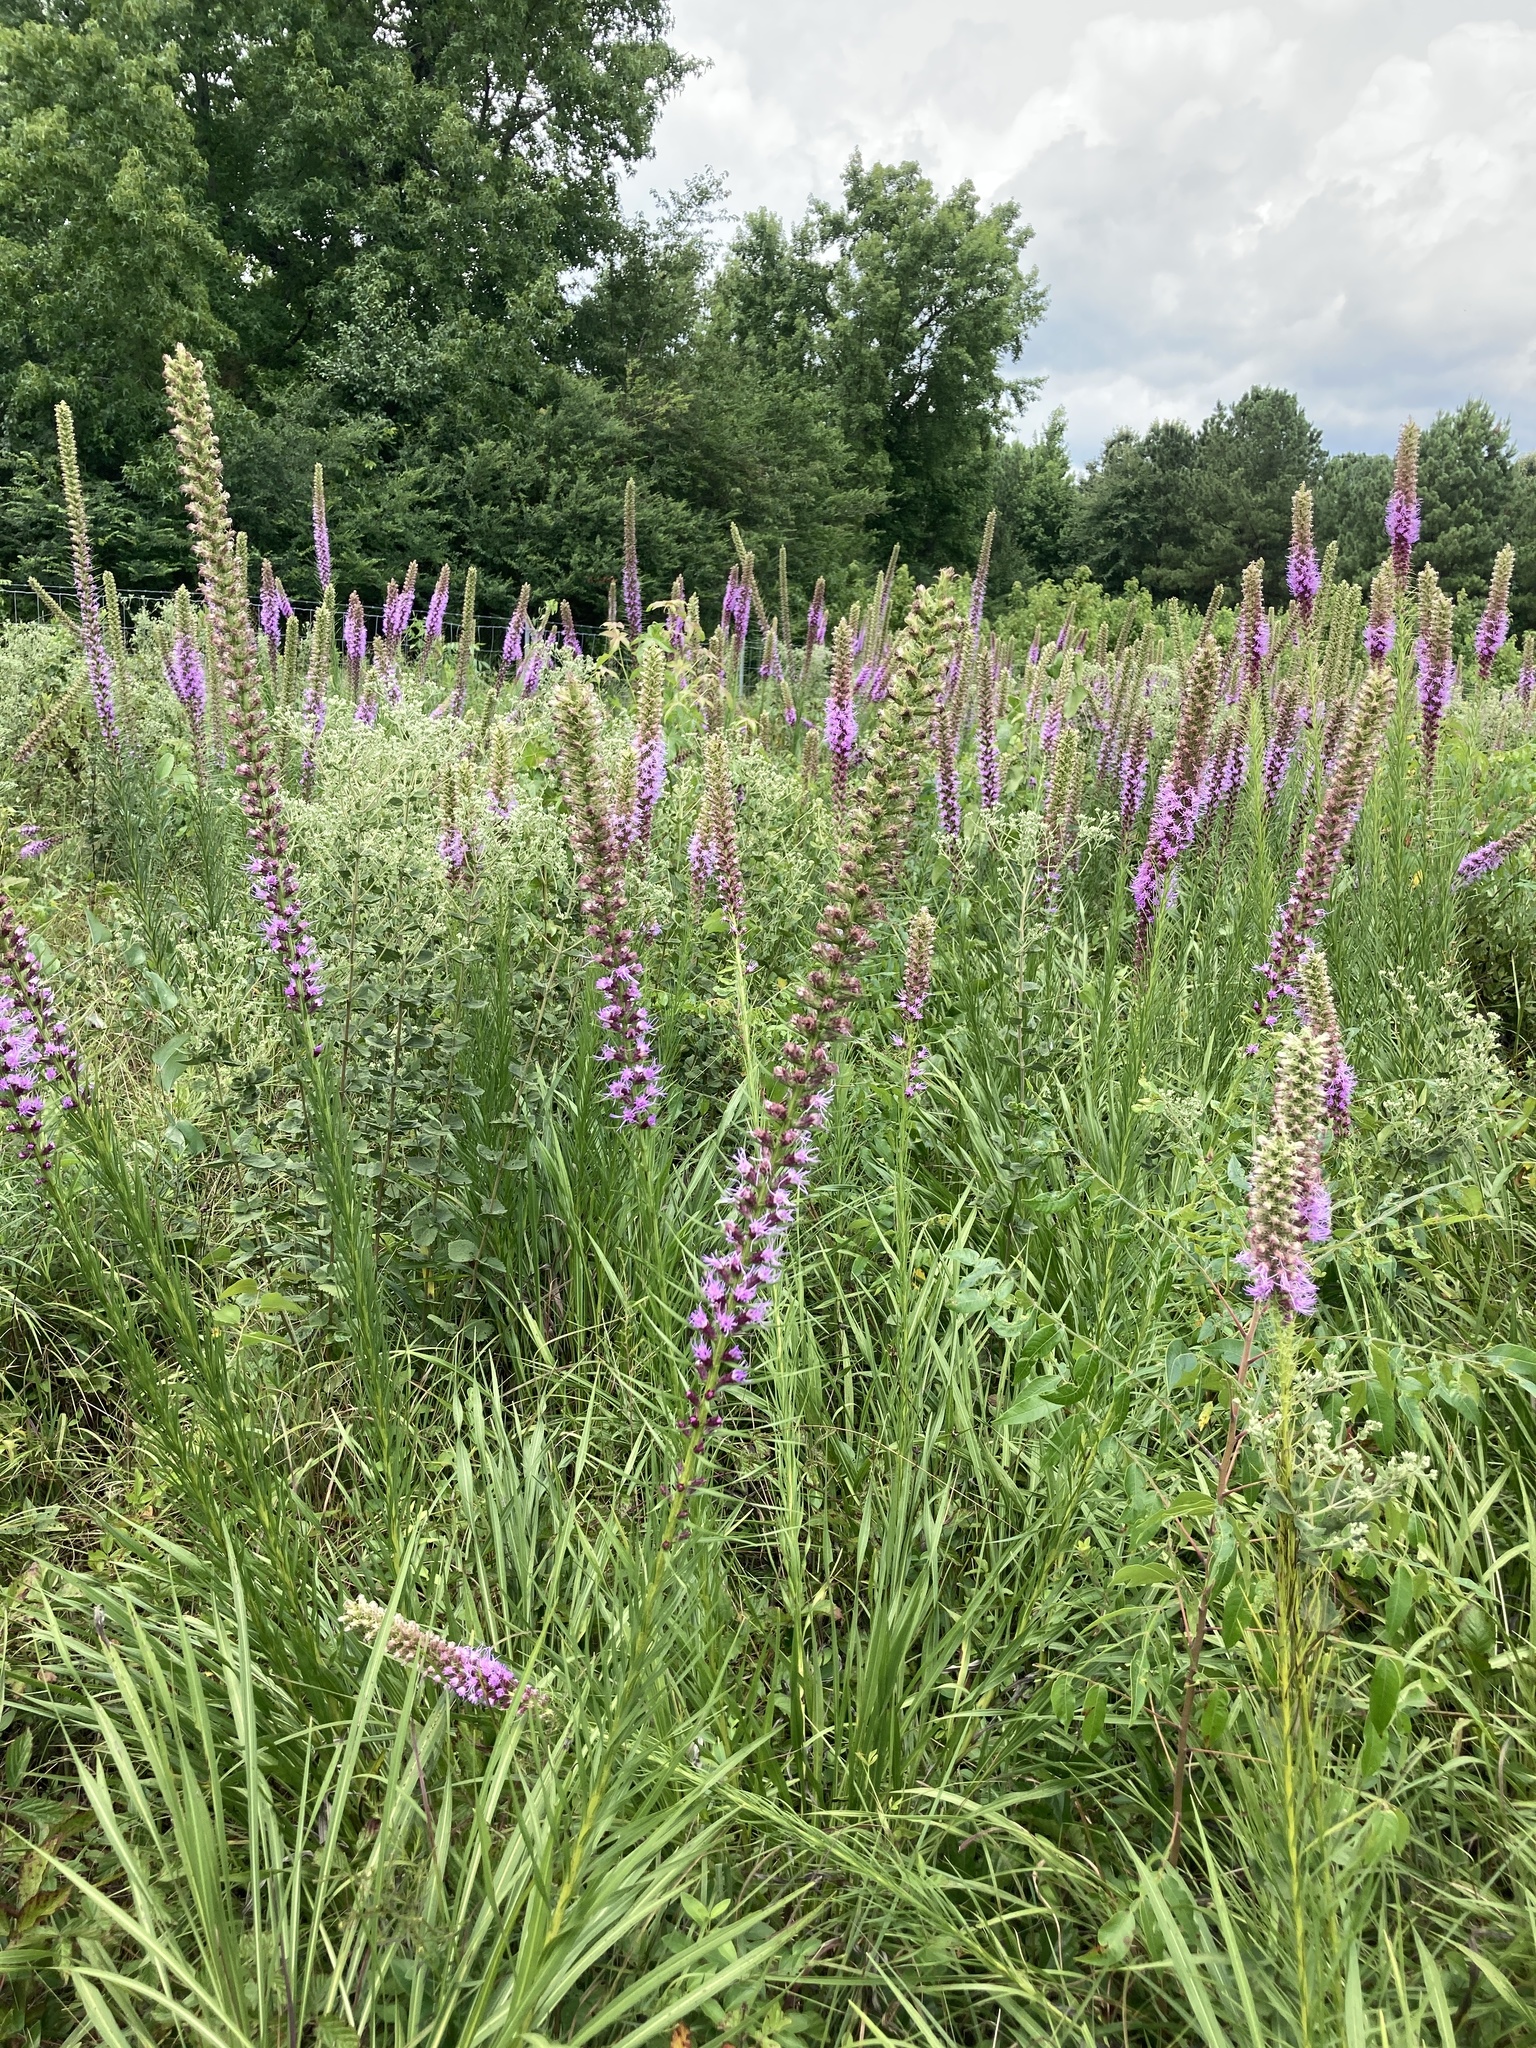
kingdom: Plantae
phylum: Tracheophyta
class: Magnoliopsida
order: Asterales
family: Asteraceae
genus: Liatris
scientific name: Liatris pycnostachya
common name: Cattail gayfeather
